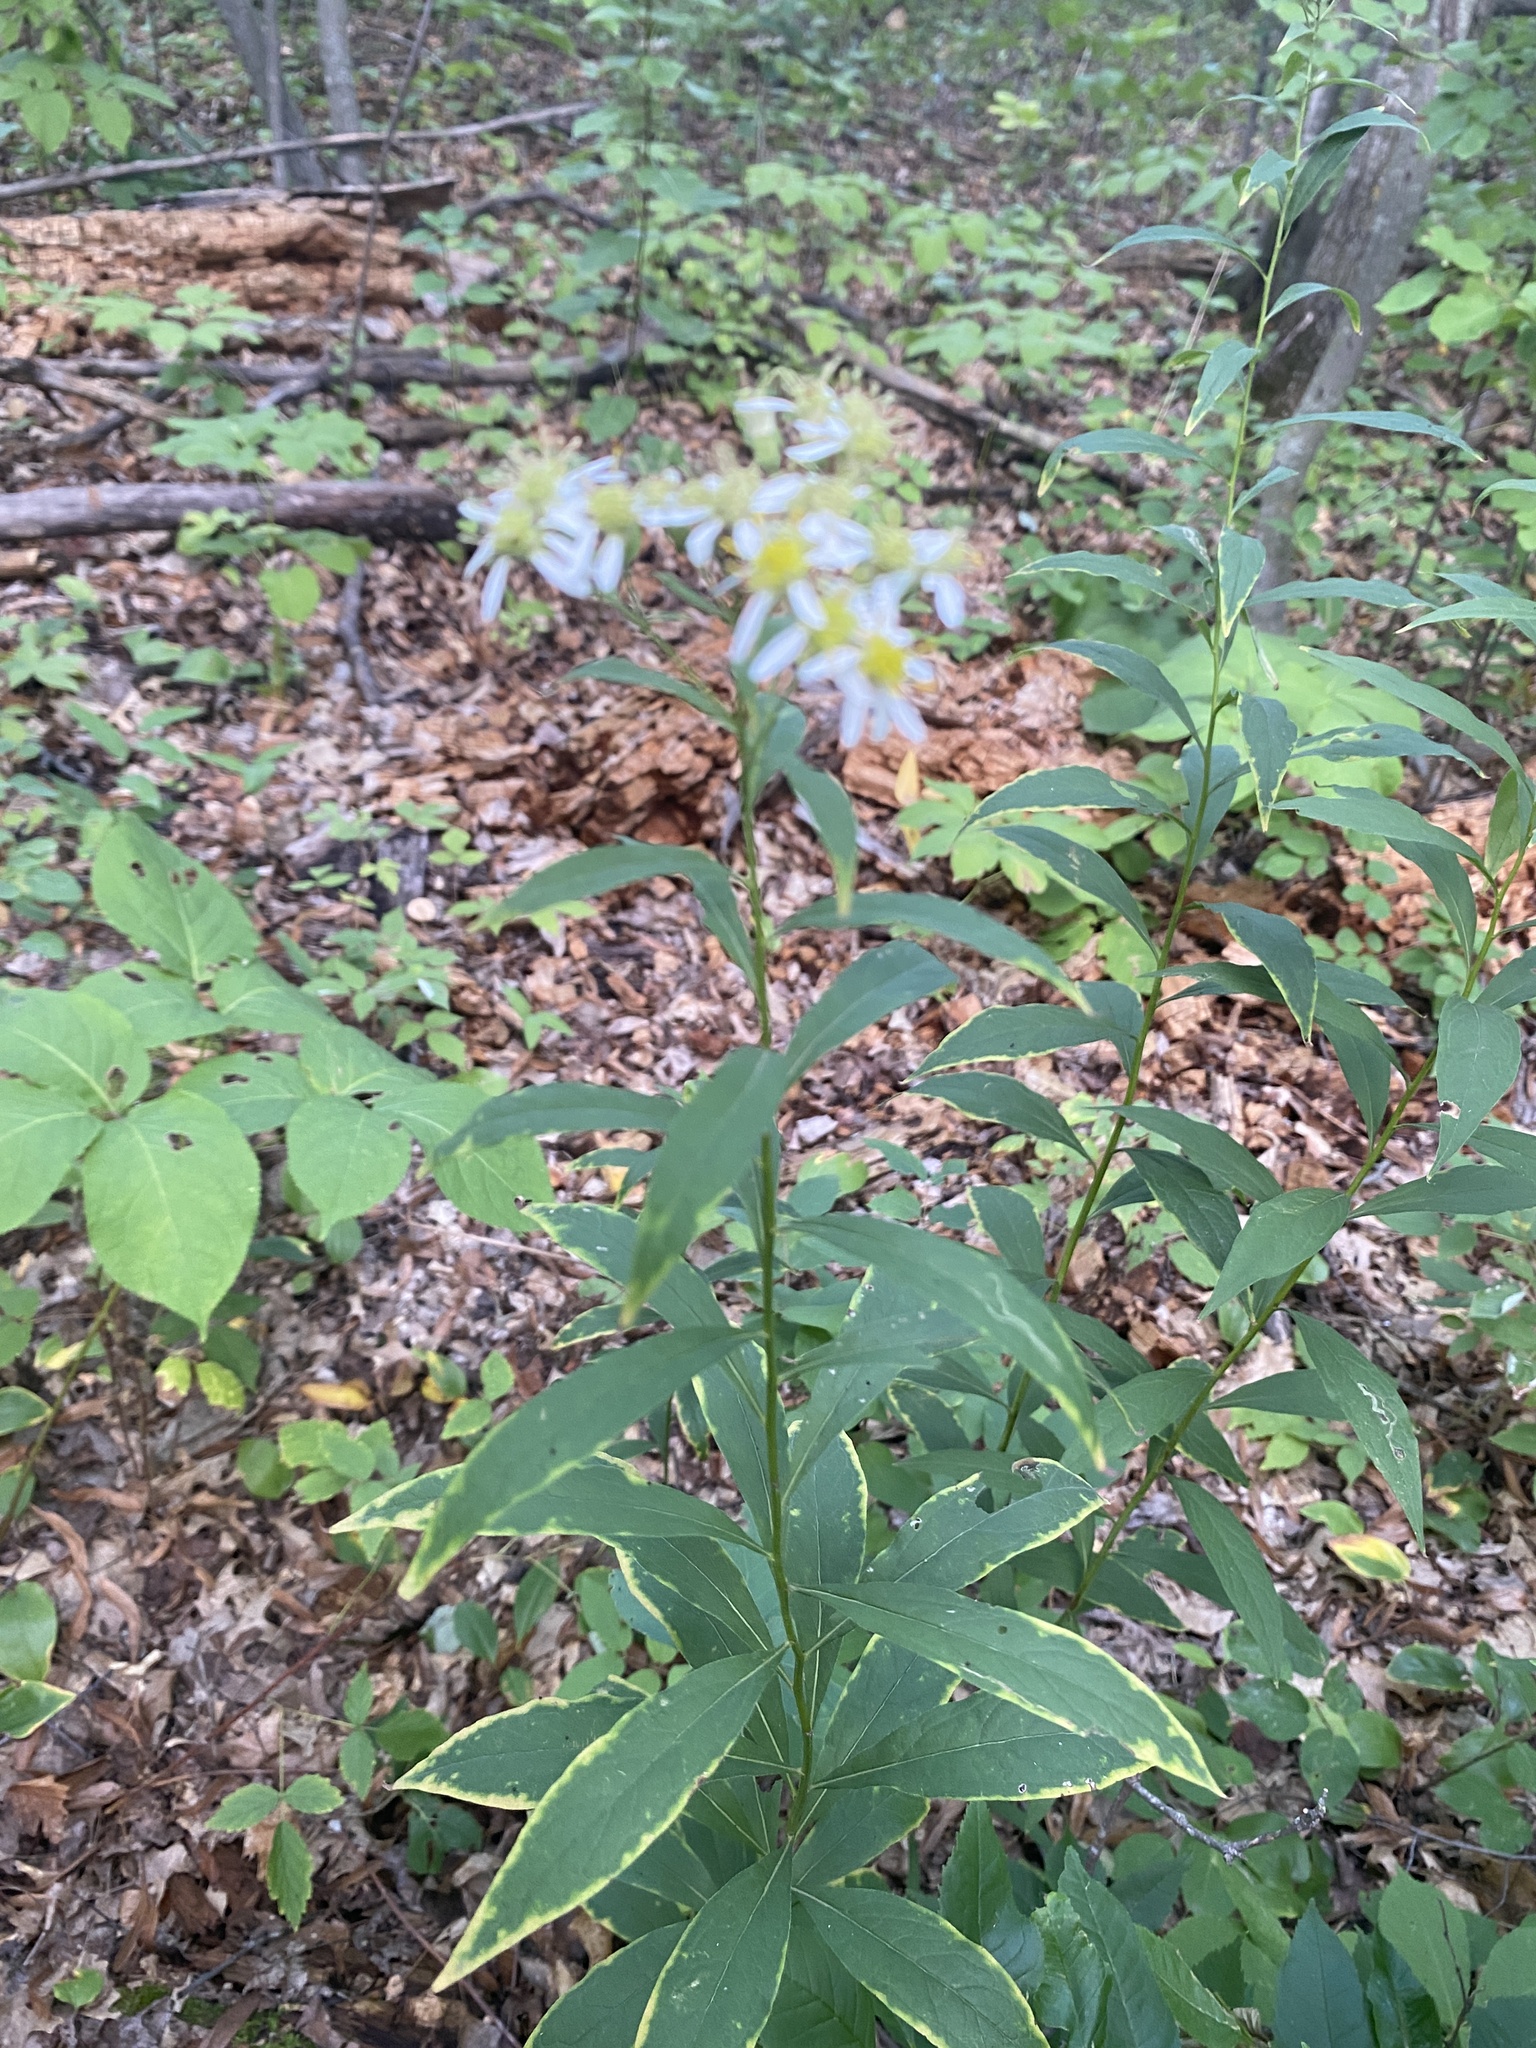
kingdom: Plantae
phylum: Tracheophyta
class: Magnoliopsida
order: Asterales
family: Asteraceae
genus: Doellingeria
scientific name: Doellingeria umbellata
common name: Flat-top white aster
